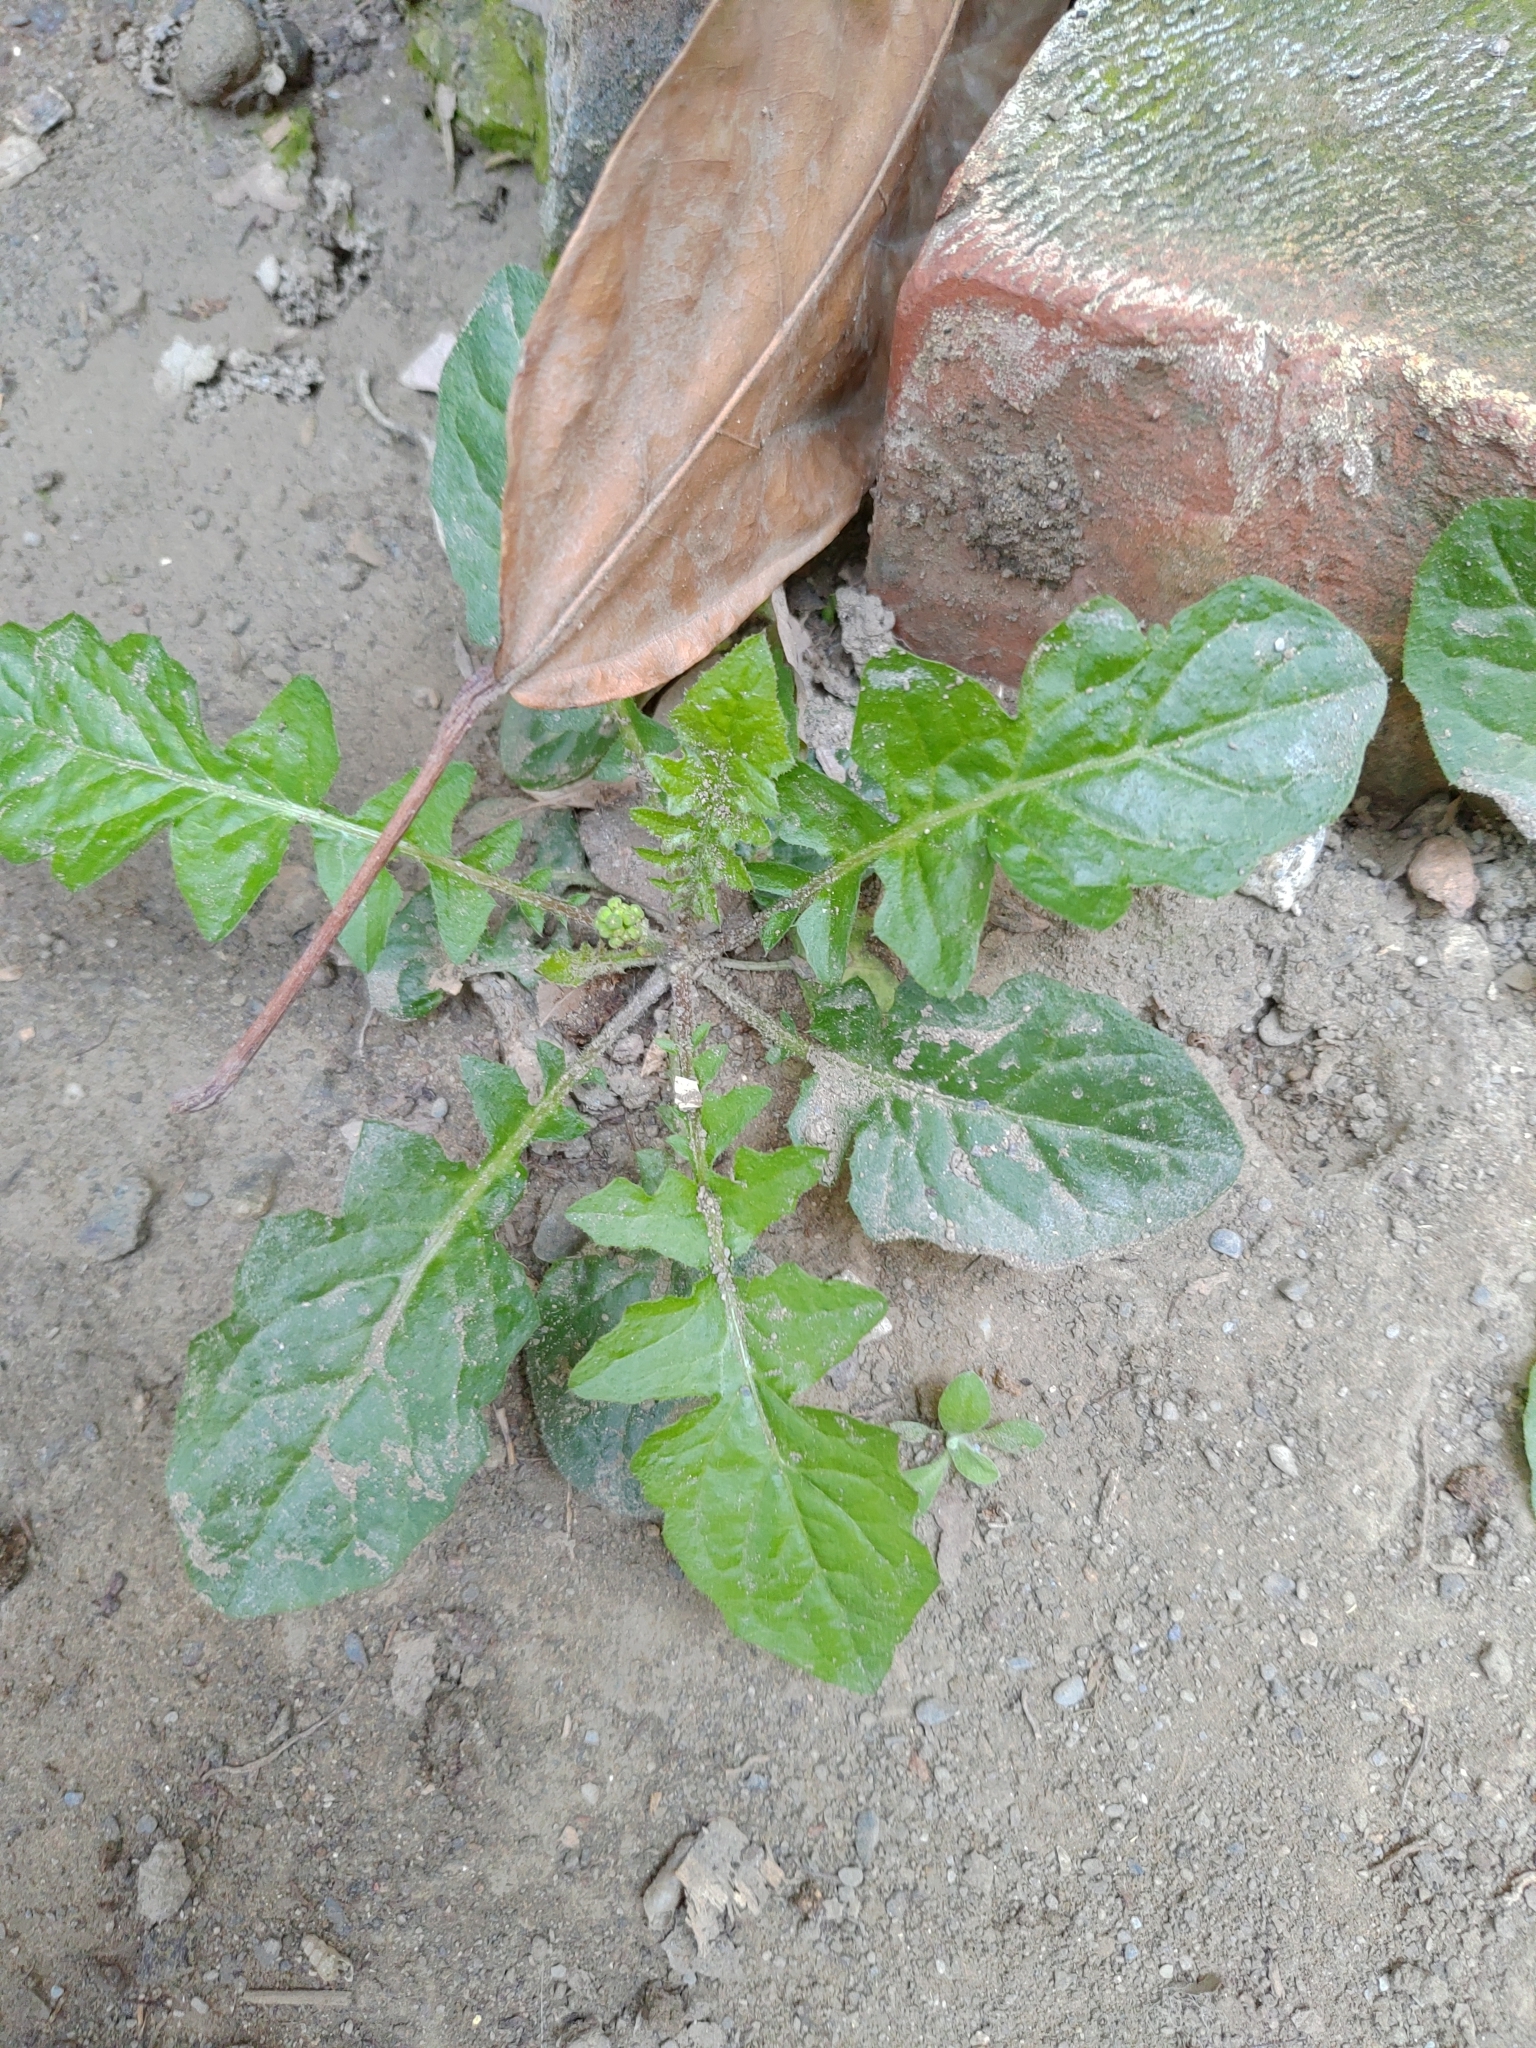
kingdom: Plantae
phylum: Tracheophyta
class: Magnoliopsida
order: Asterales
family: Asteraceae
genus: Youngia
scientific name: Youngia japonica
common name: Oriental false hawksbeard
